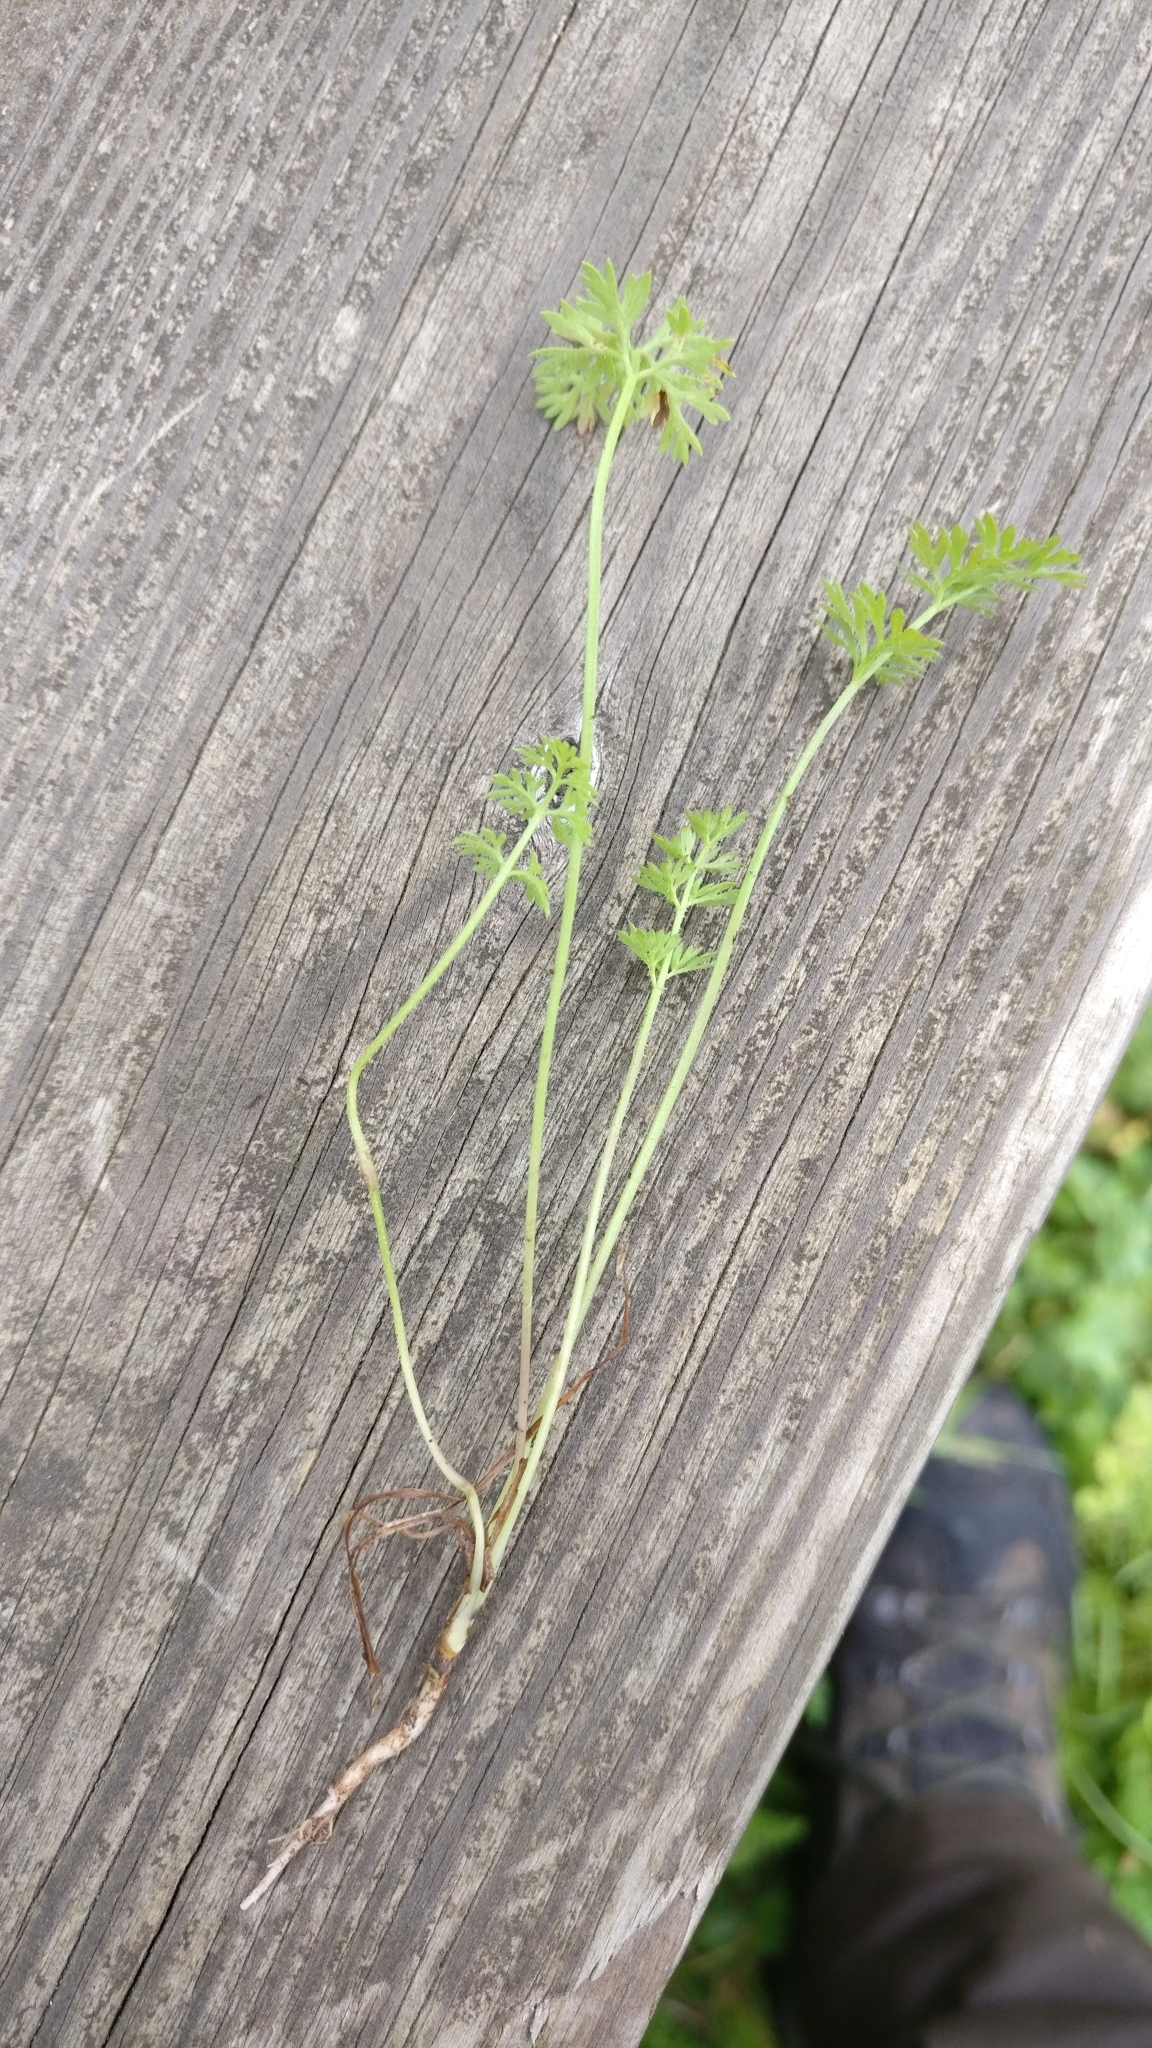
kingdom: Plantae
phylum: Tracheophyta
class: Magnoliopsida
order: Apiales
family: Apiaceae
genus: Daucus
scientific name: Daucus carota
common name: Wild carrot
